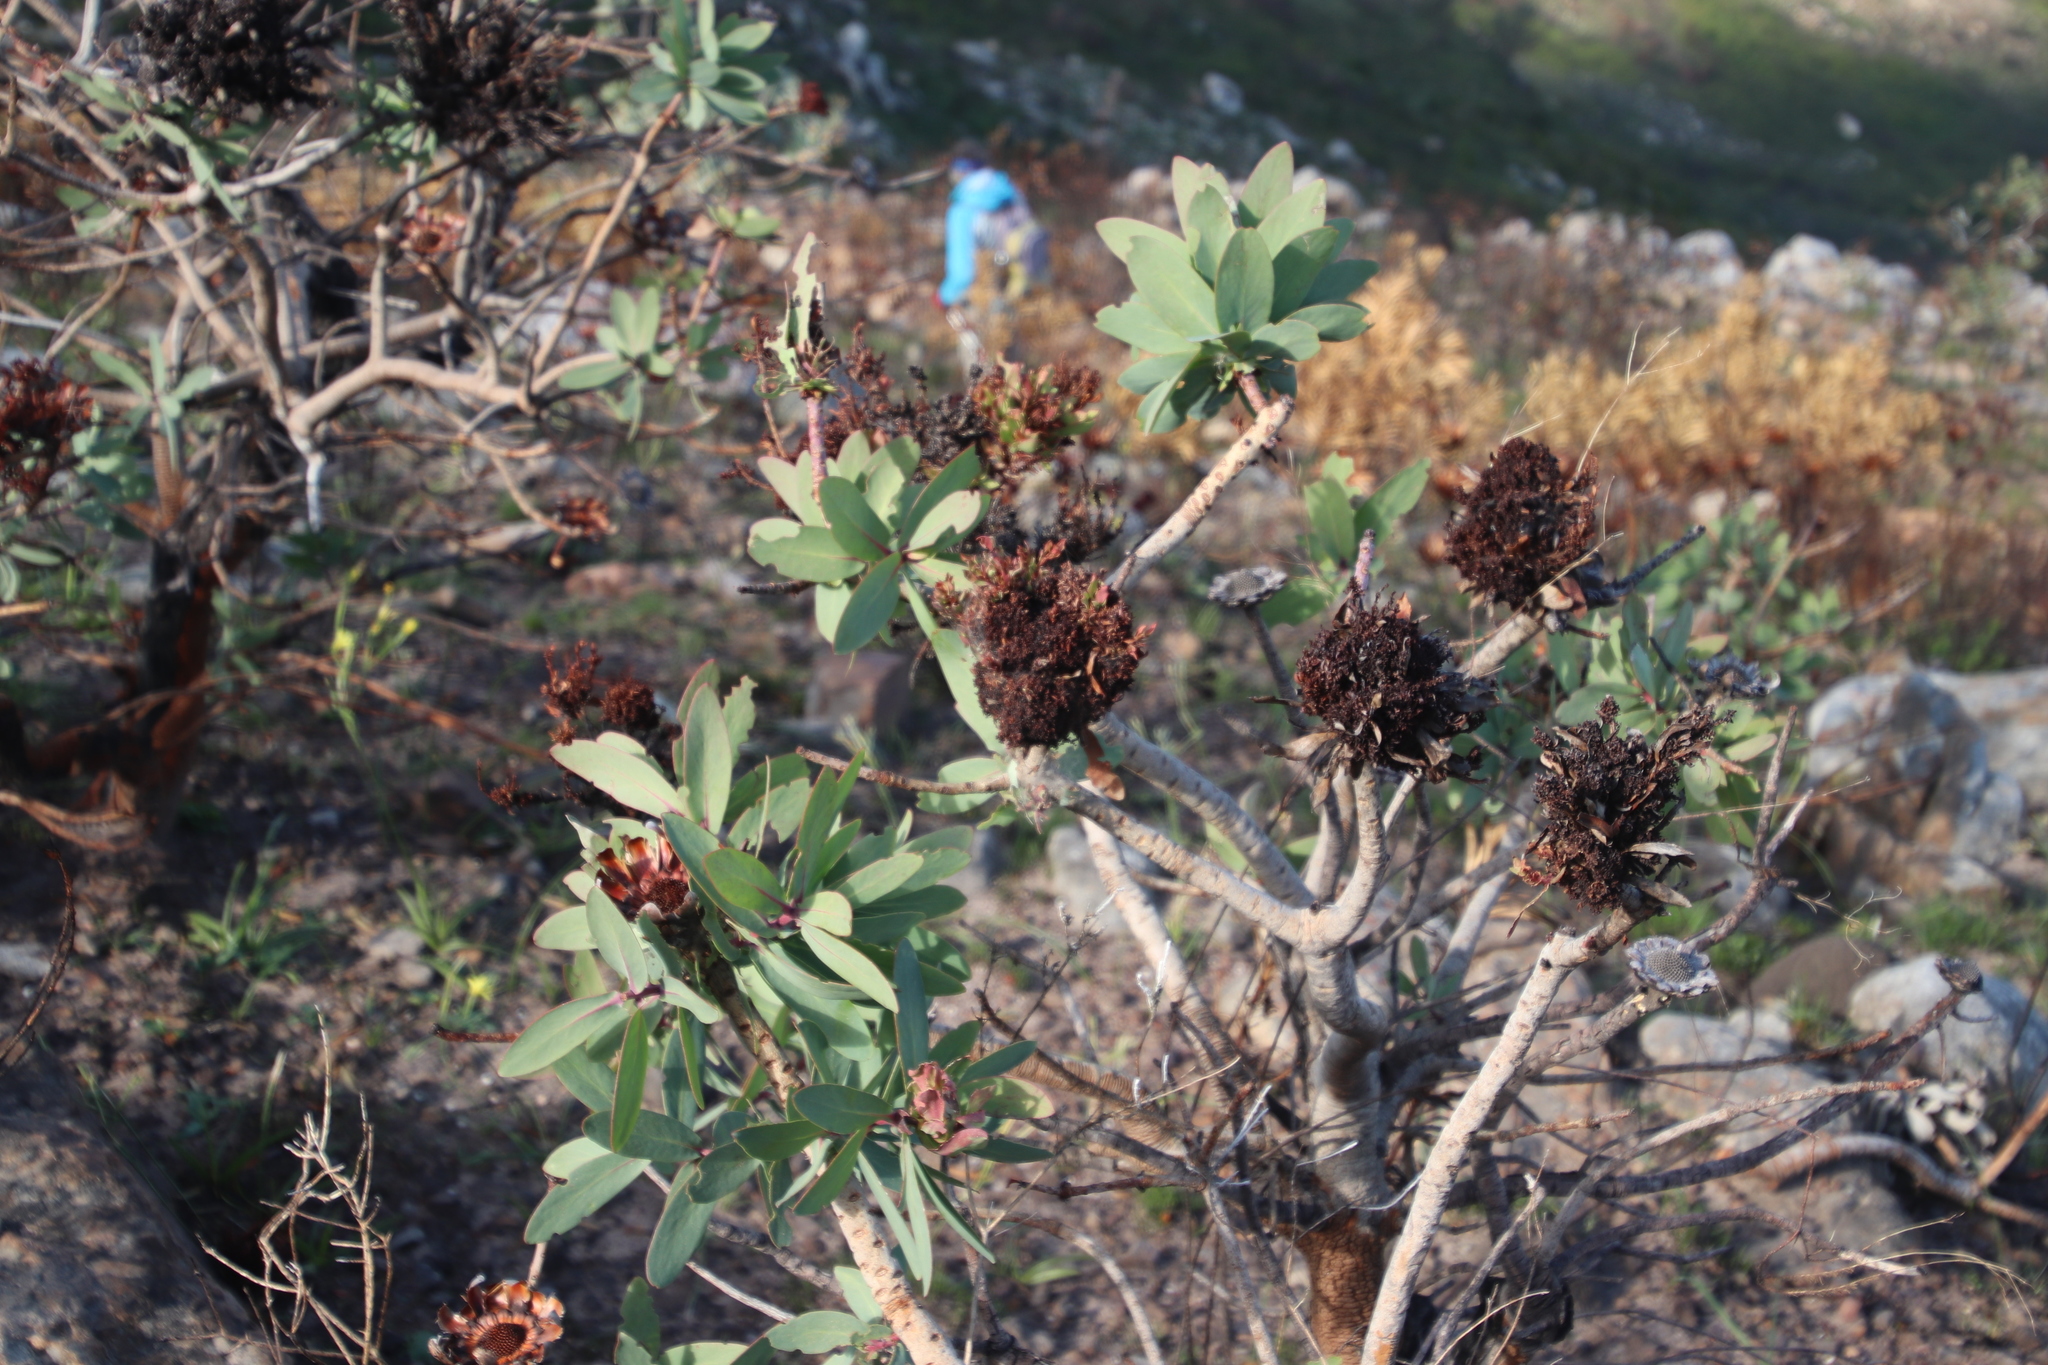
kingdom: Bacteria
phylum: Firmicutes
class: Bacilli
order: Acholeplasmatales
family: Acholeplasmataceae
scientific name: Acholeplasmataceae
